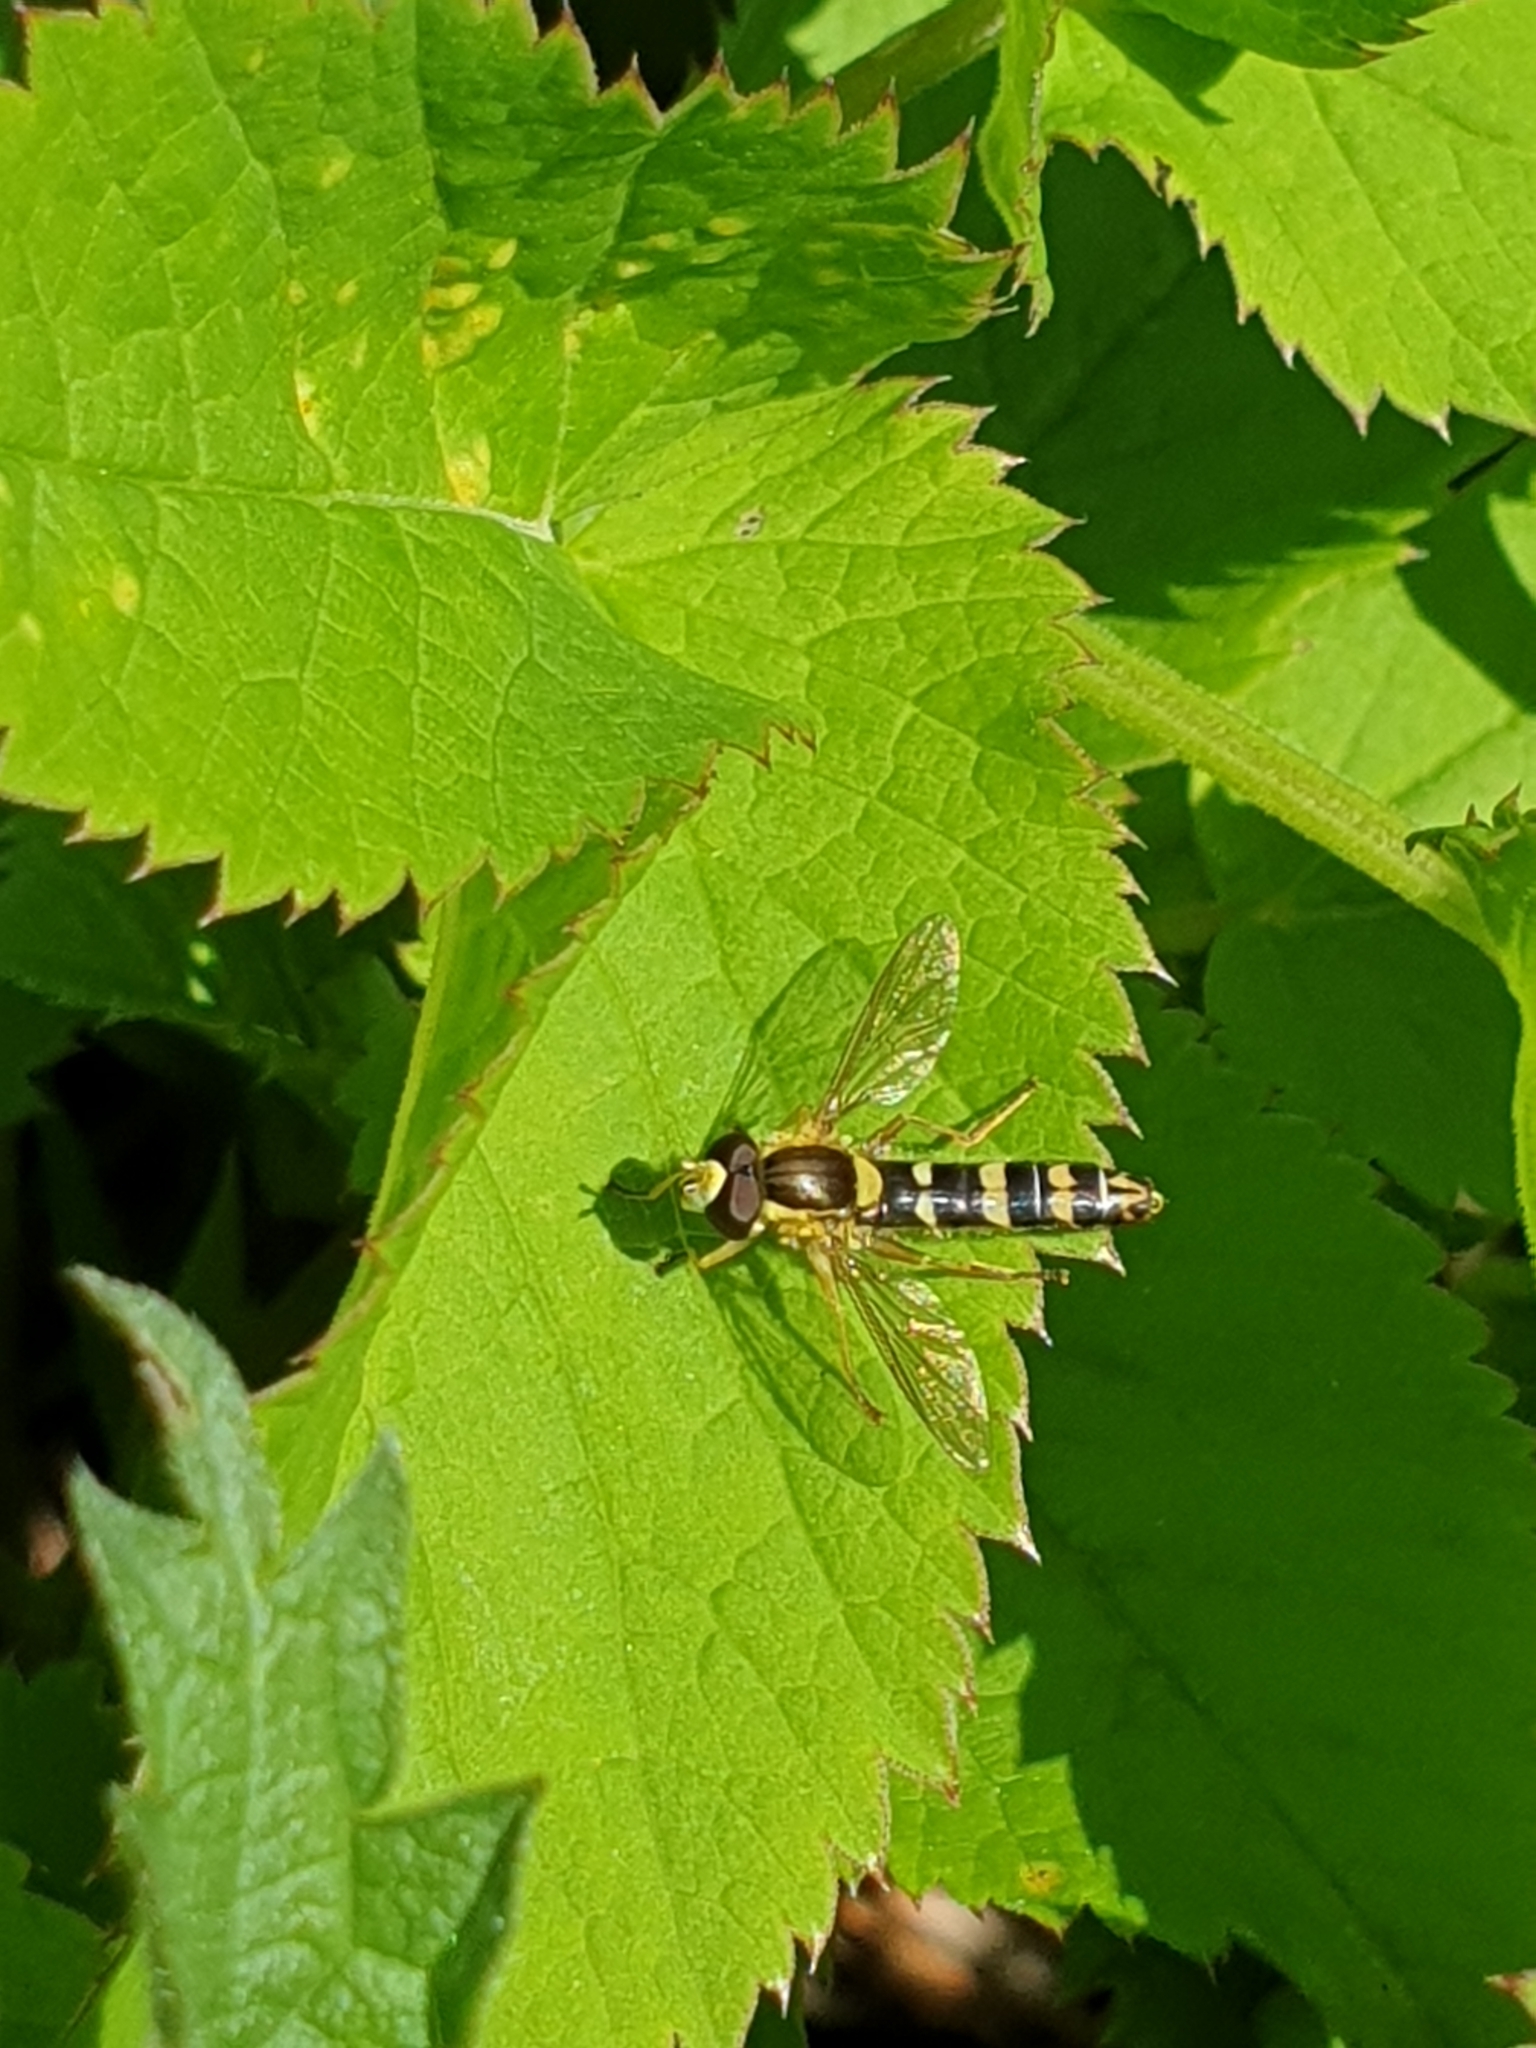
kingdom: Animalia
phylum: Arthropoda
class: Insecta
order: Diptera
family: Syrphidae
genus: Sphaerophoria
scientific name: Sphaerophoria scripta
